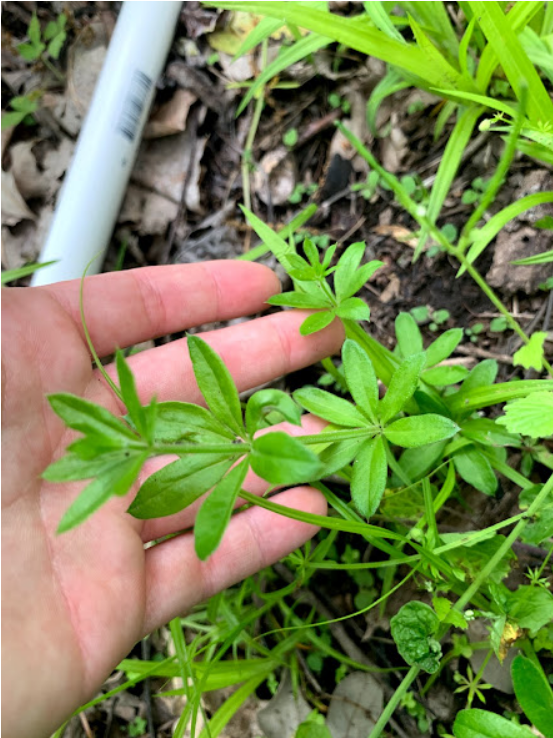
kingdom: Plantae
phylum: Tracheophyta
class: Magnoliopsida
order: Gentianales
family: Rubiaceae
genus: Galium
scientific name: Galium triflorum
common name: Fragrant bedstraw
